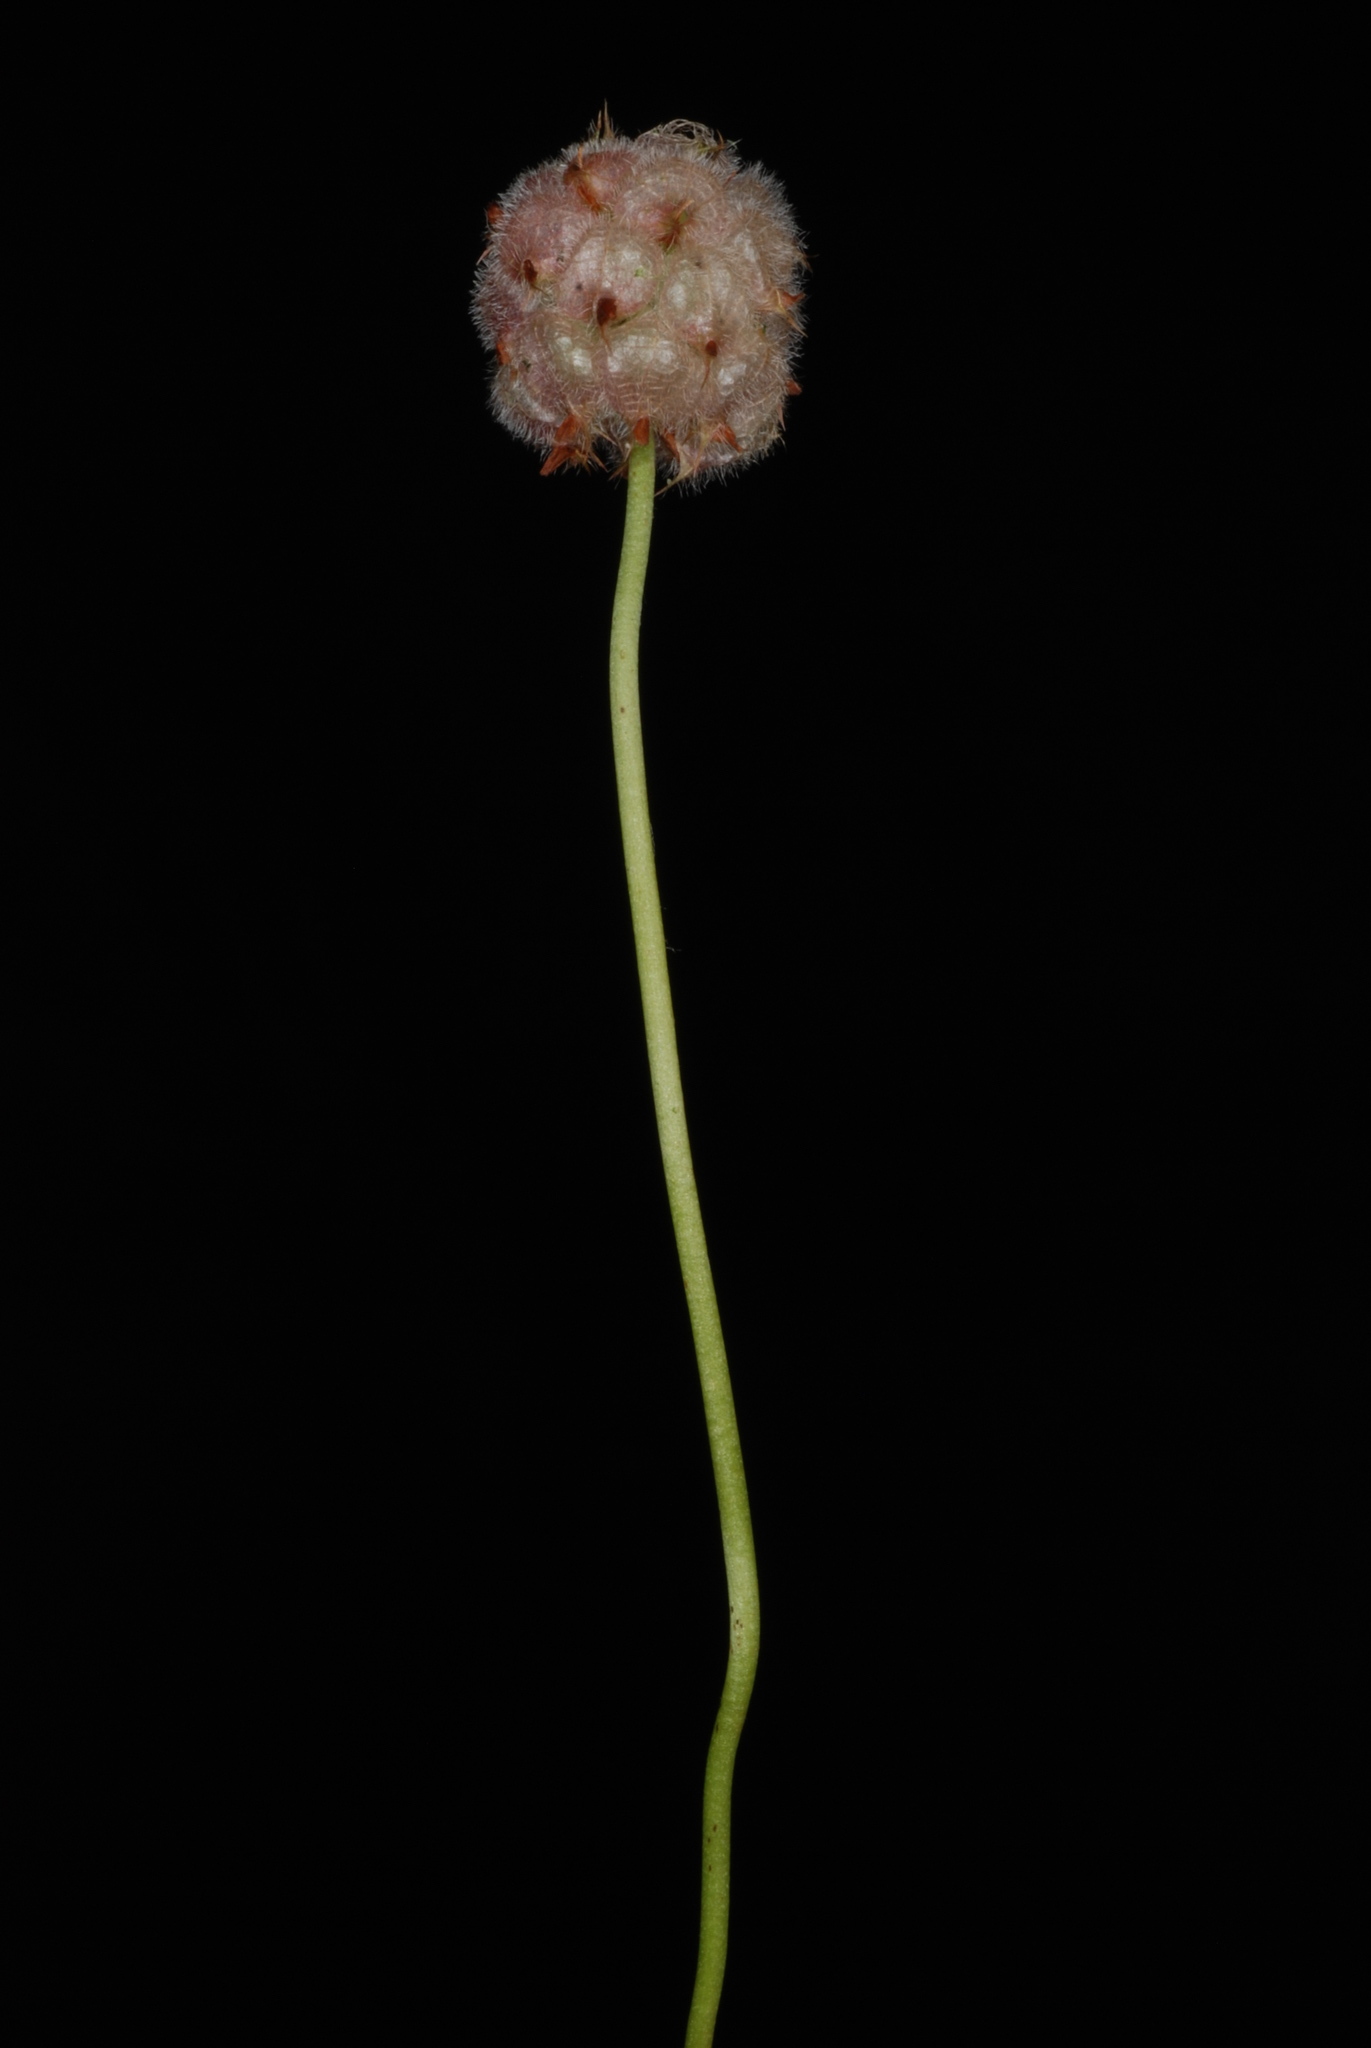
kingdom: Plantae
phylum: Tracheophyta
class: Magnoliopsida
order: Fabales
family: Fabaceae
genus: Trifolium
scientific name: Trifolium fragiferum
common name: Strawberry clover
